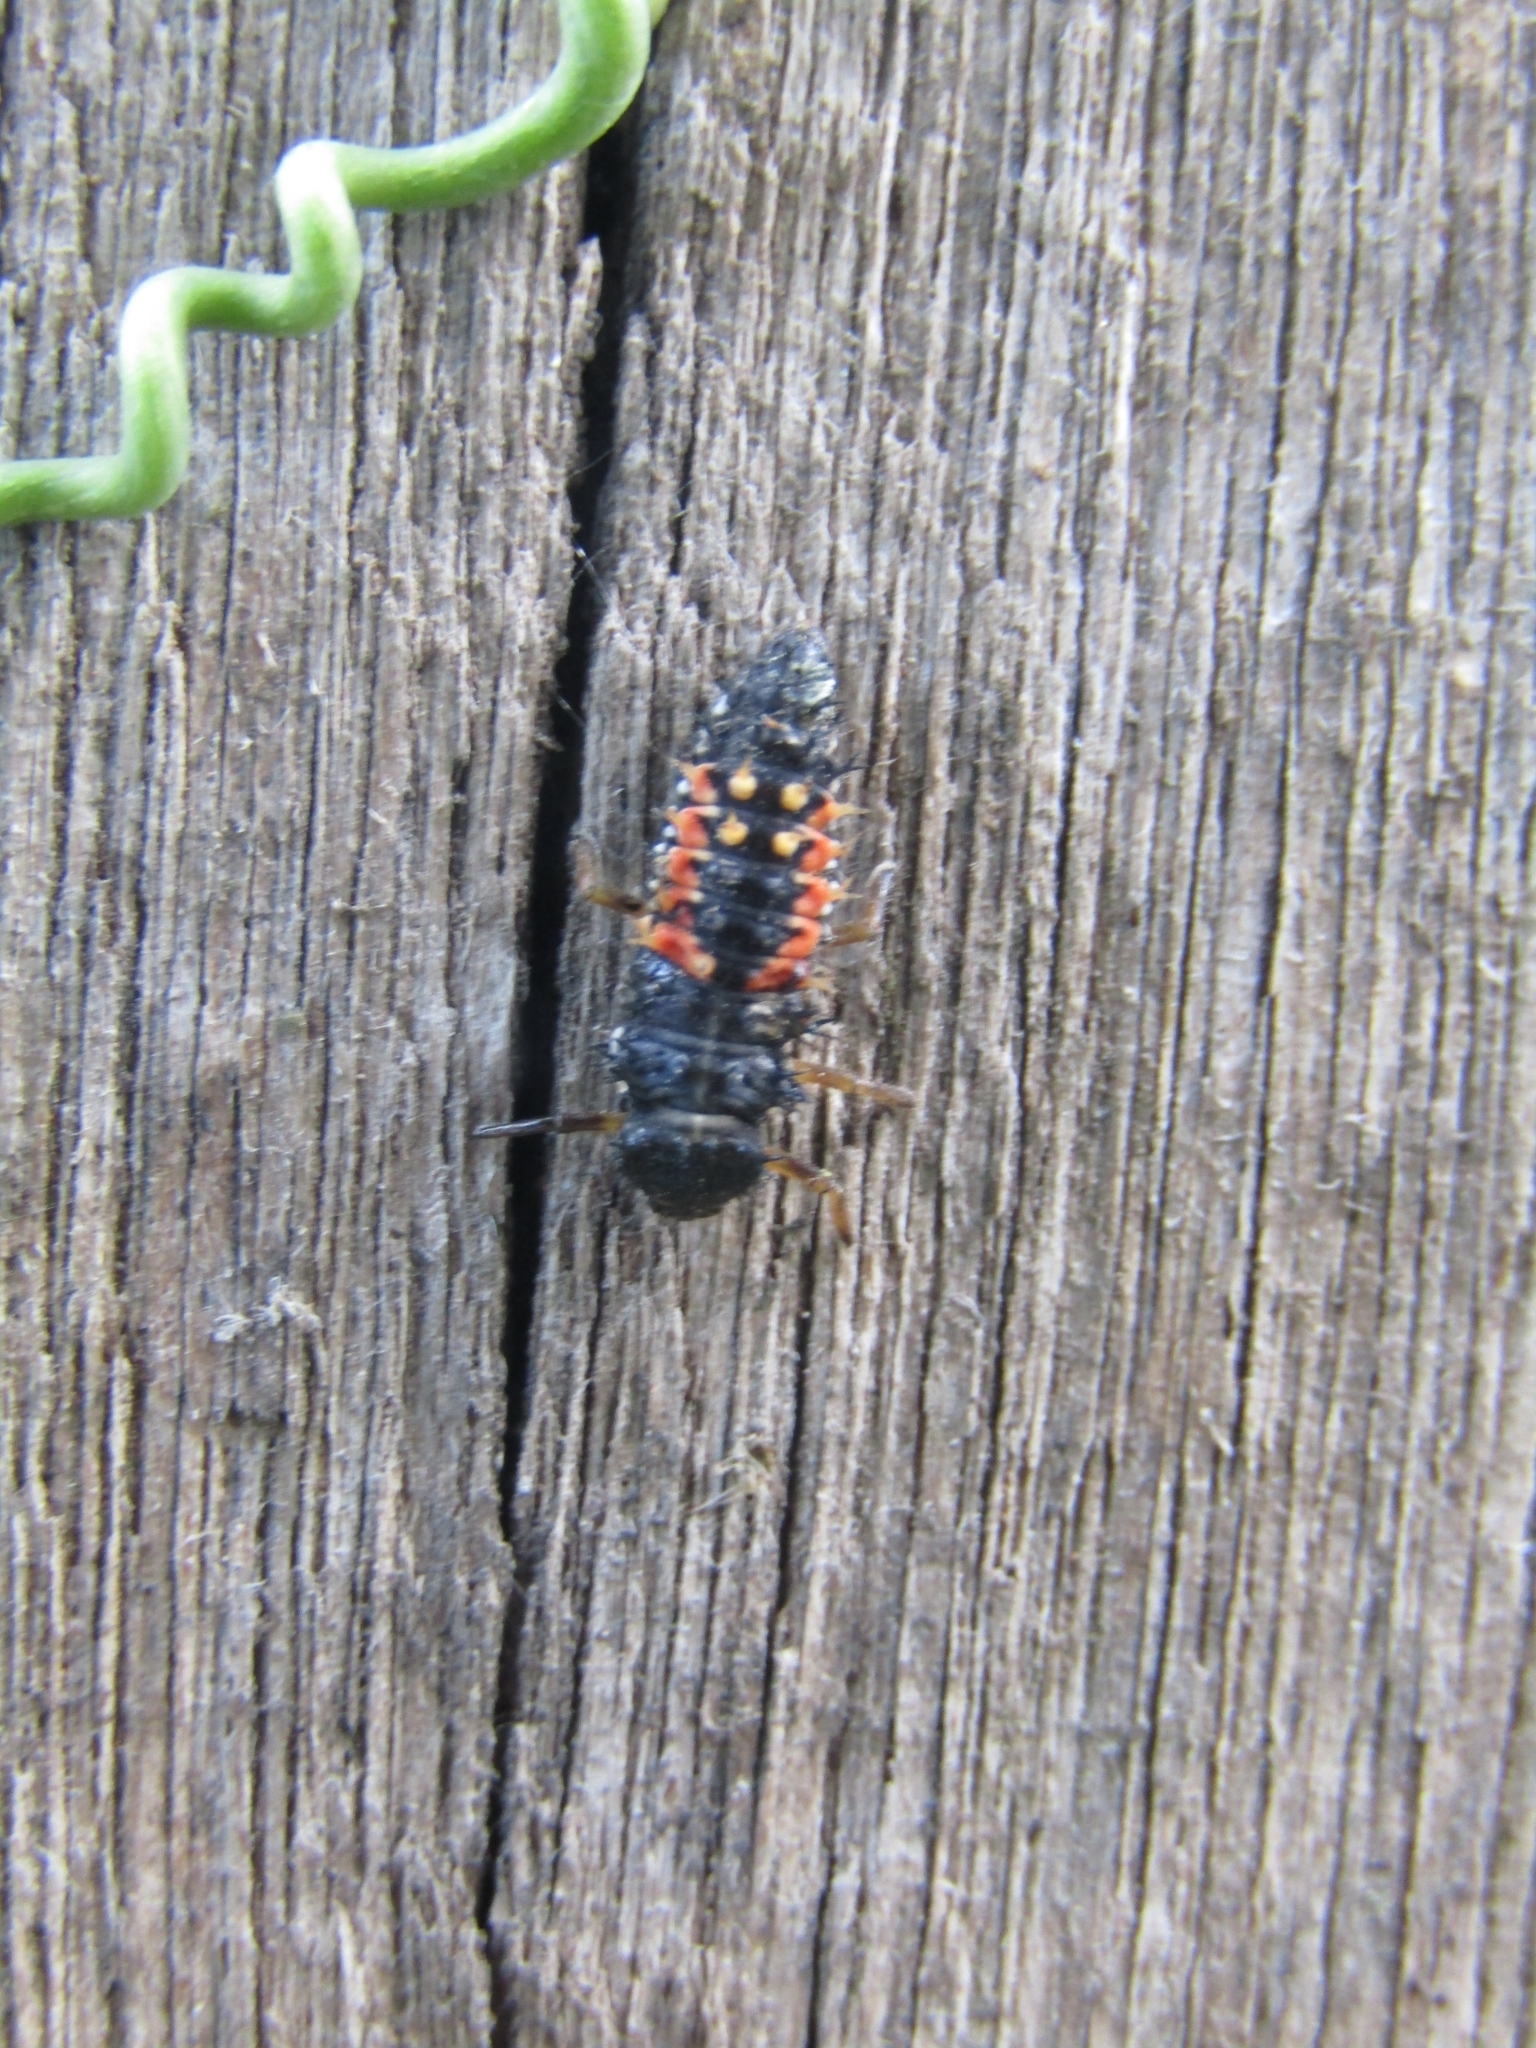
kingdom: Animalia
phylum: Arthropoda
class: Insecta
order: Coleoptera
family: Coccinellidae
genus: Harmonia
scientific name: Harmonia axyridis
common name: Harlequin ladybird
